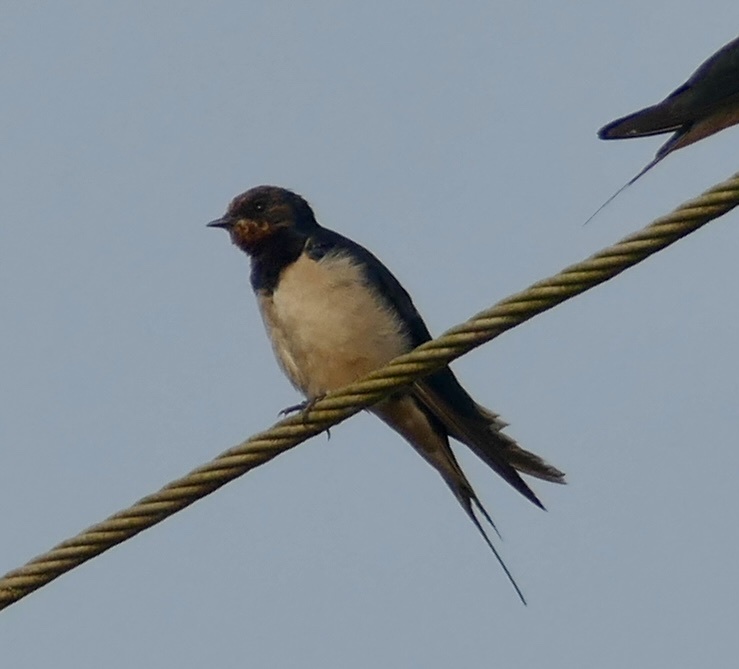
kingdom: Animalia
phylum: Chordata
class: Aves
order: Passeriformes
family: Hirundinidae
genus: Hirundo
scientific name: Hirundo rustica
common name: Barn swallow
